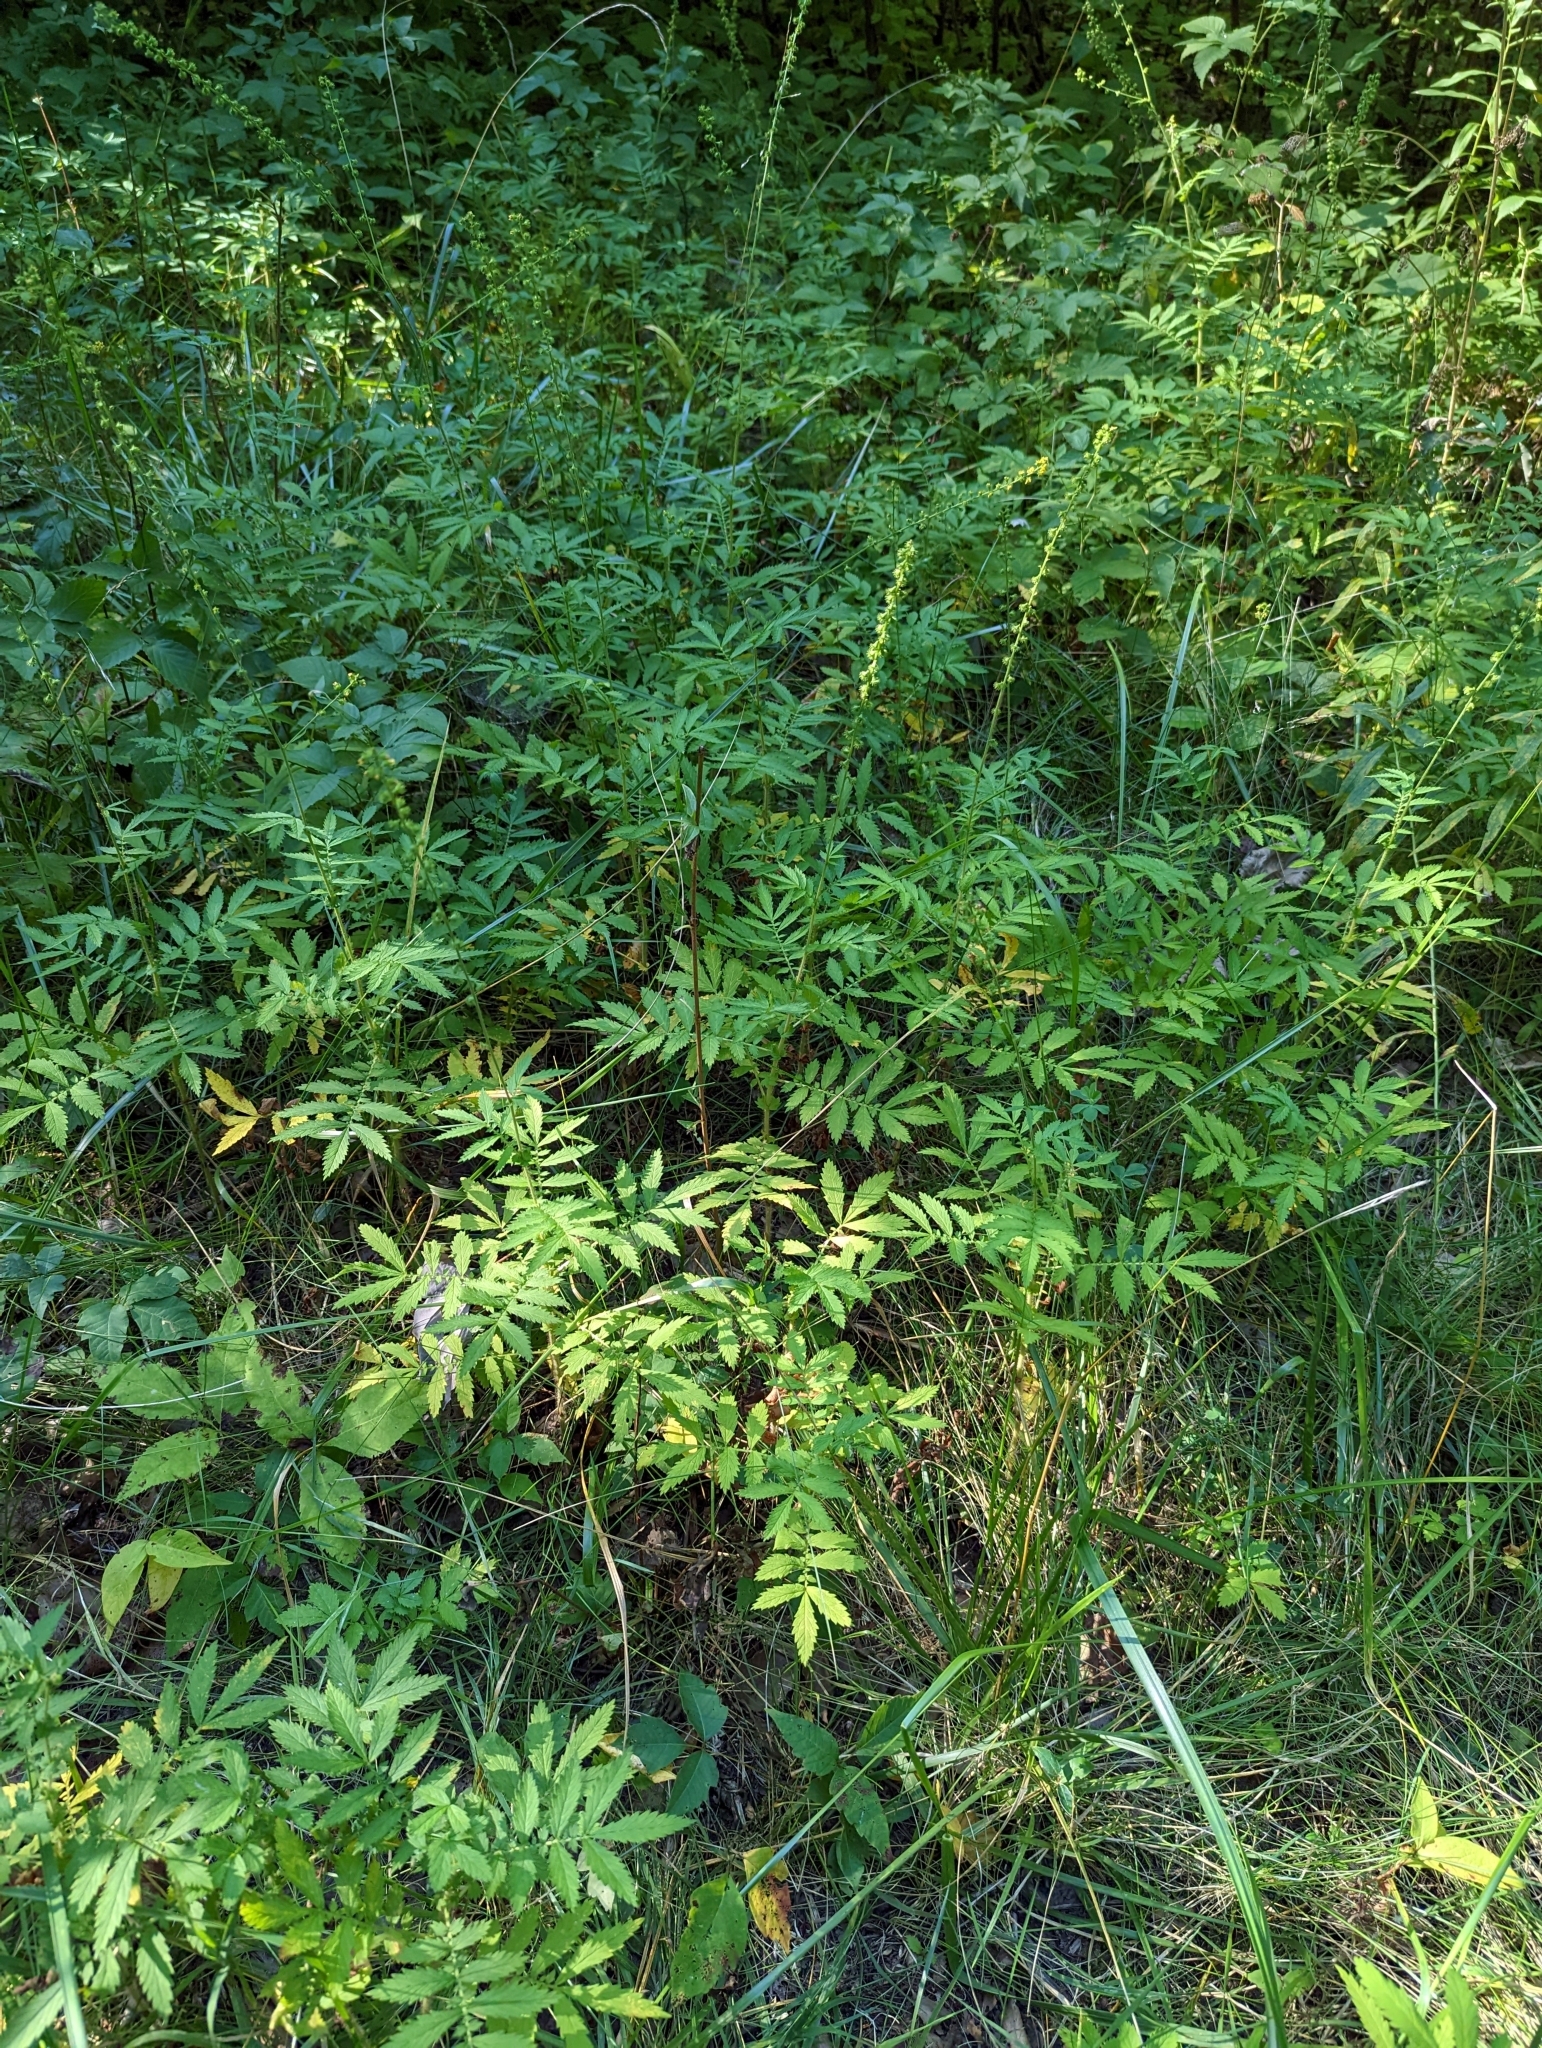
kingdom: Plantae
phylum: Tracheophyta
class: Magnoliopsida
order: Rosales
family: Rosaceae
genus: Agrimonia
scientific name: Agrimonia parviflora
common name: Harvest-lice
